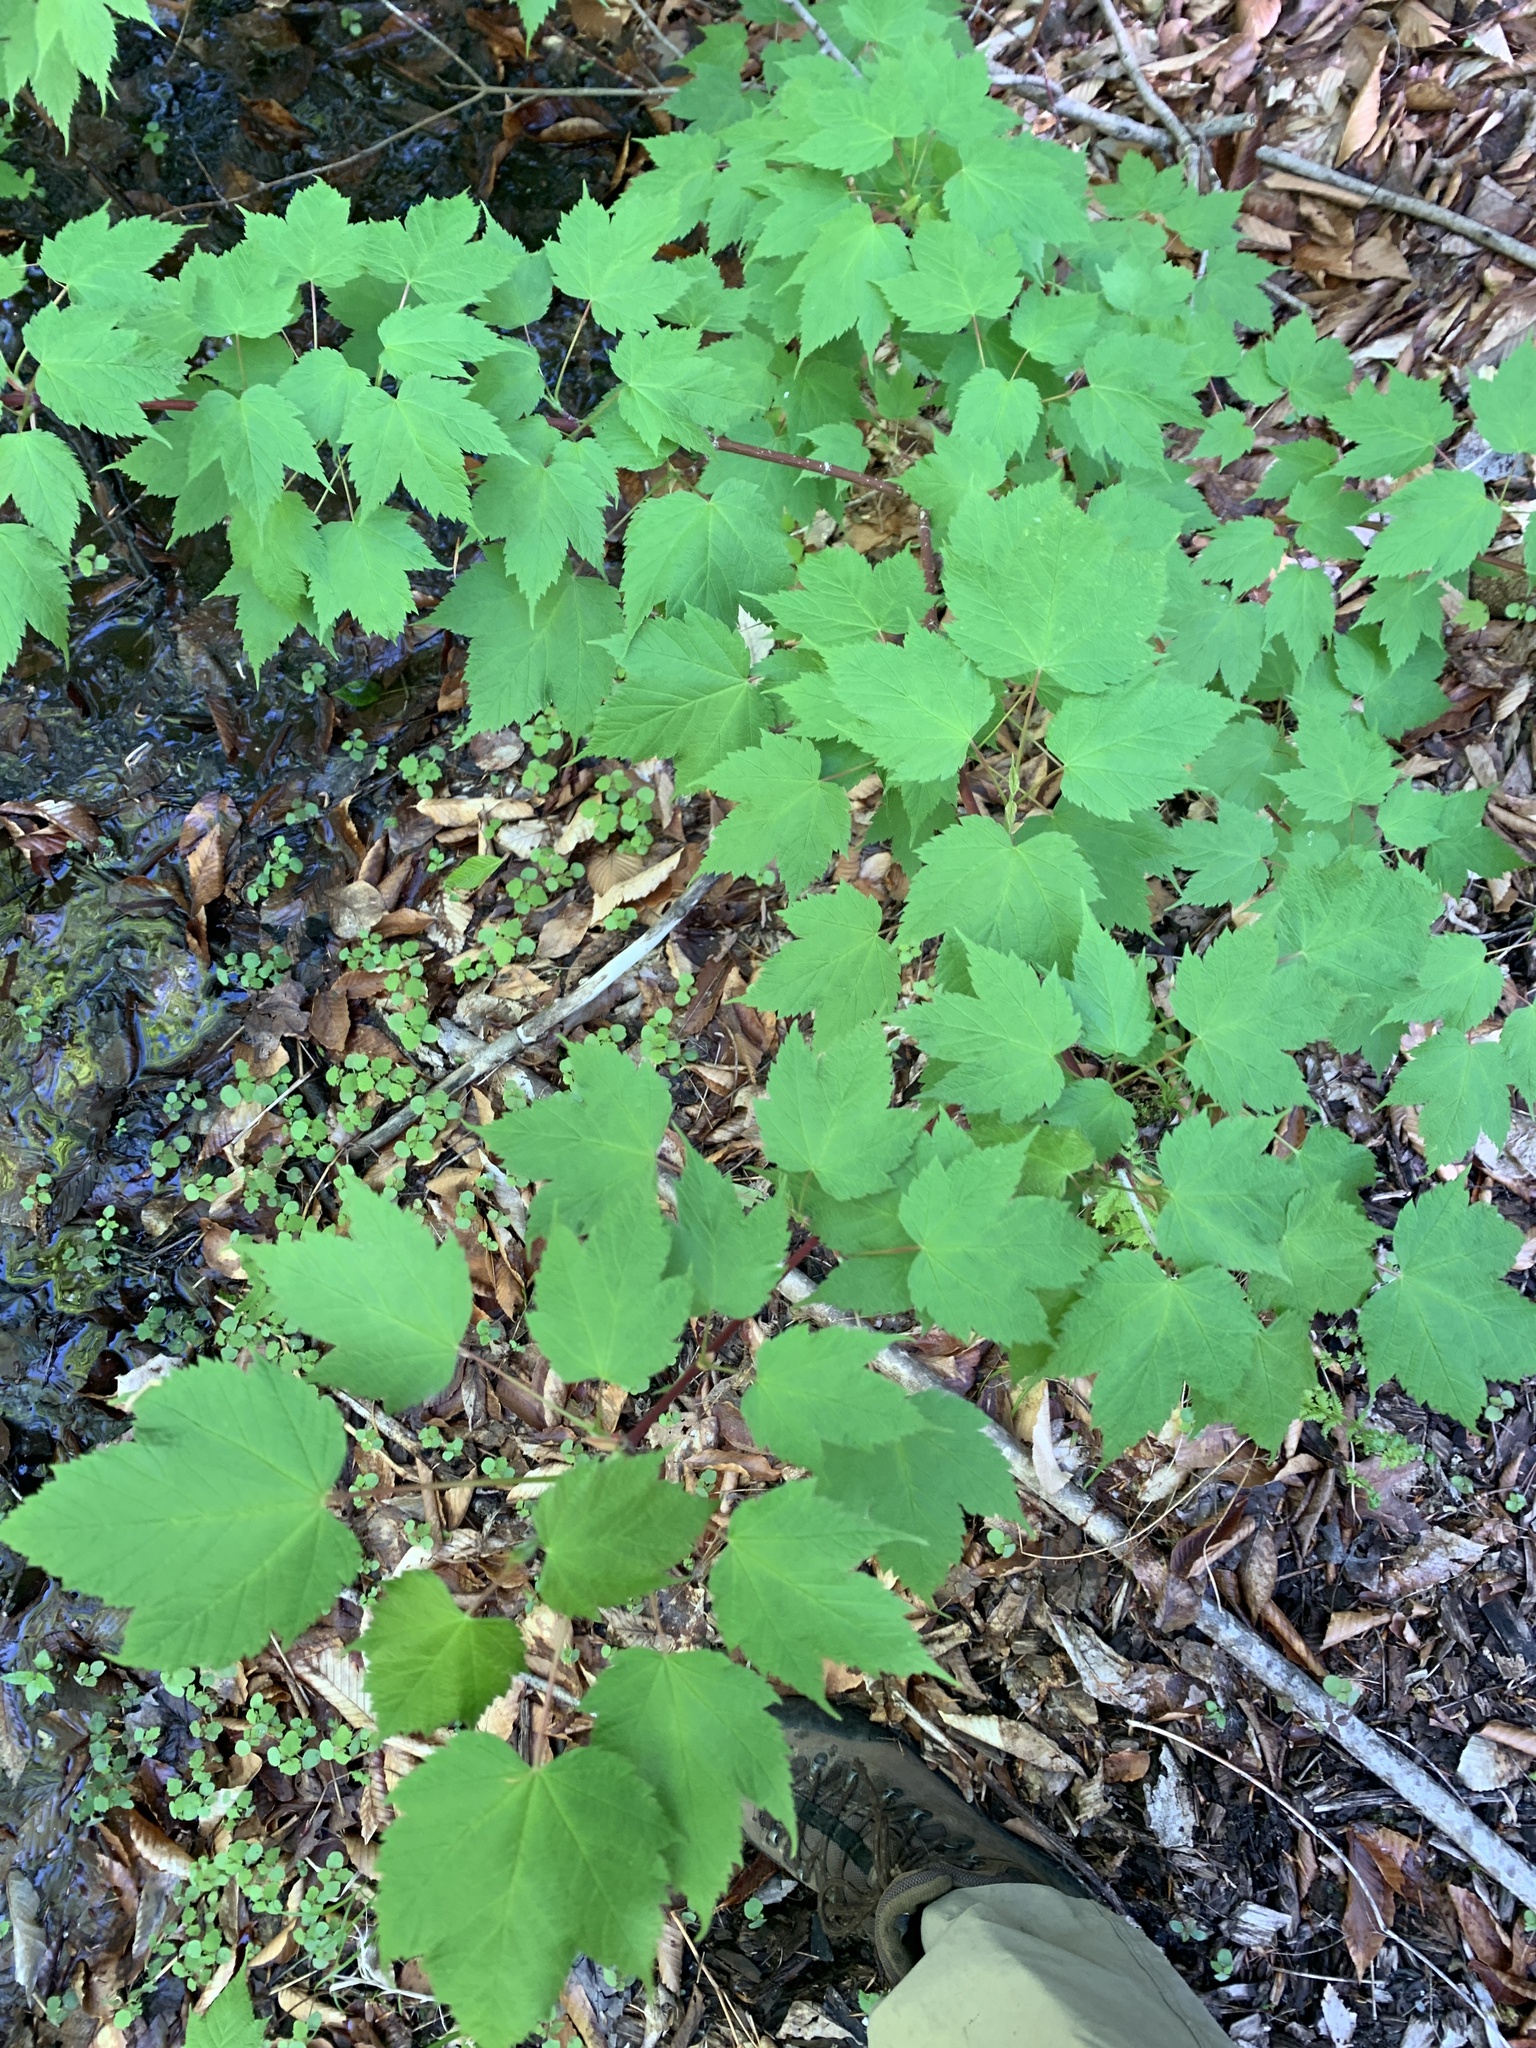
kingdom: Plantae
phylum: Tracheophyta
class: Magnoliopsida
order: Sapindales
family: Sapindaceae
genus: Acer
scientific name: Acer spicatum
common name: Mountain maple
